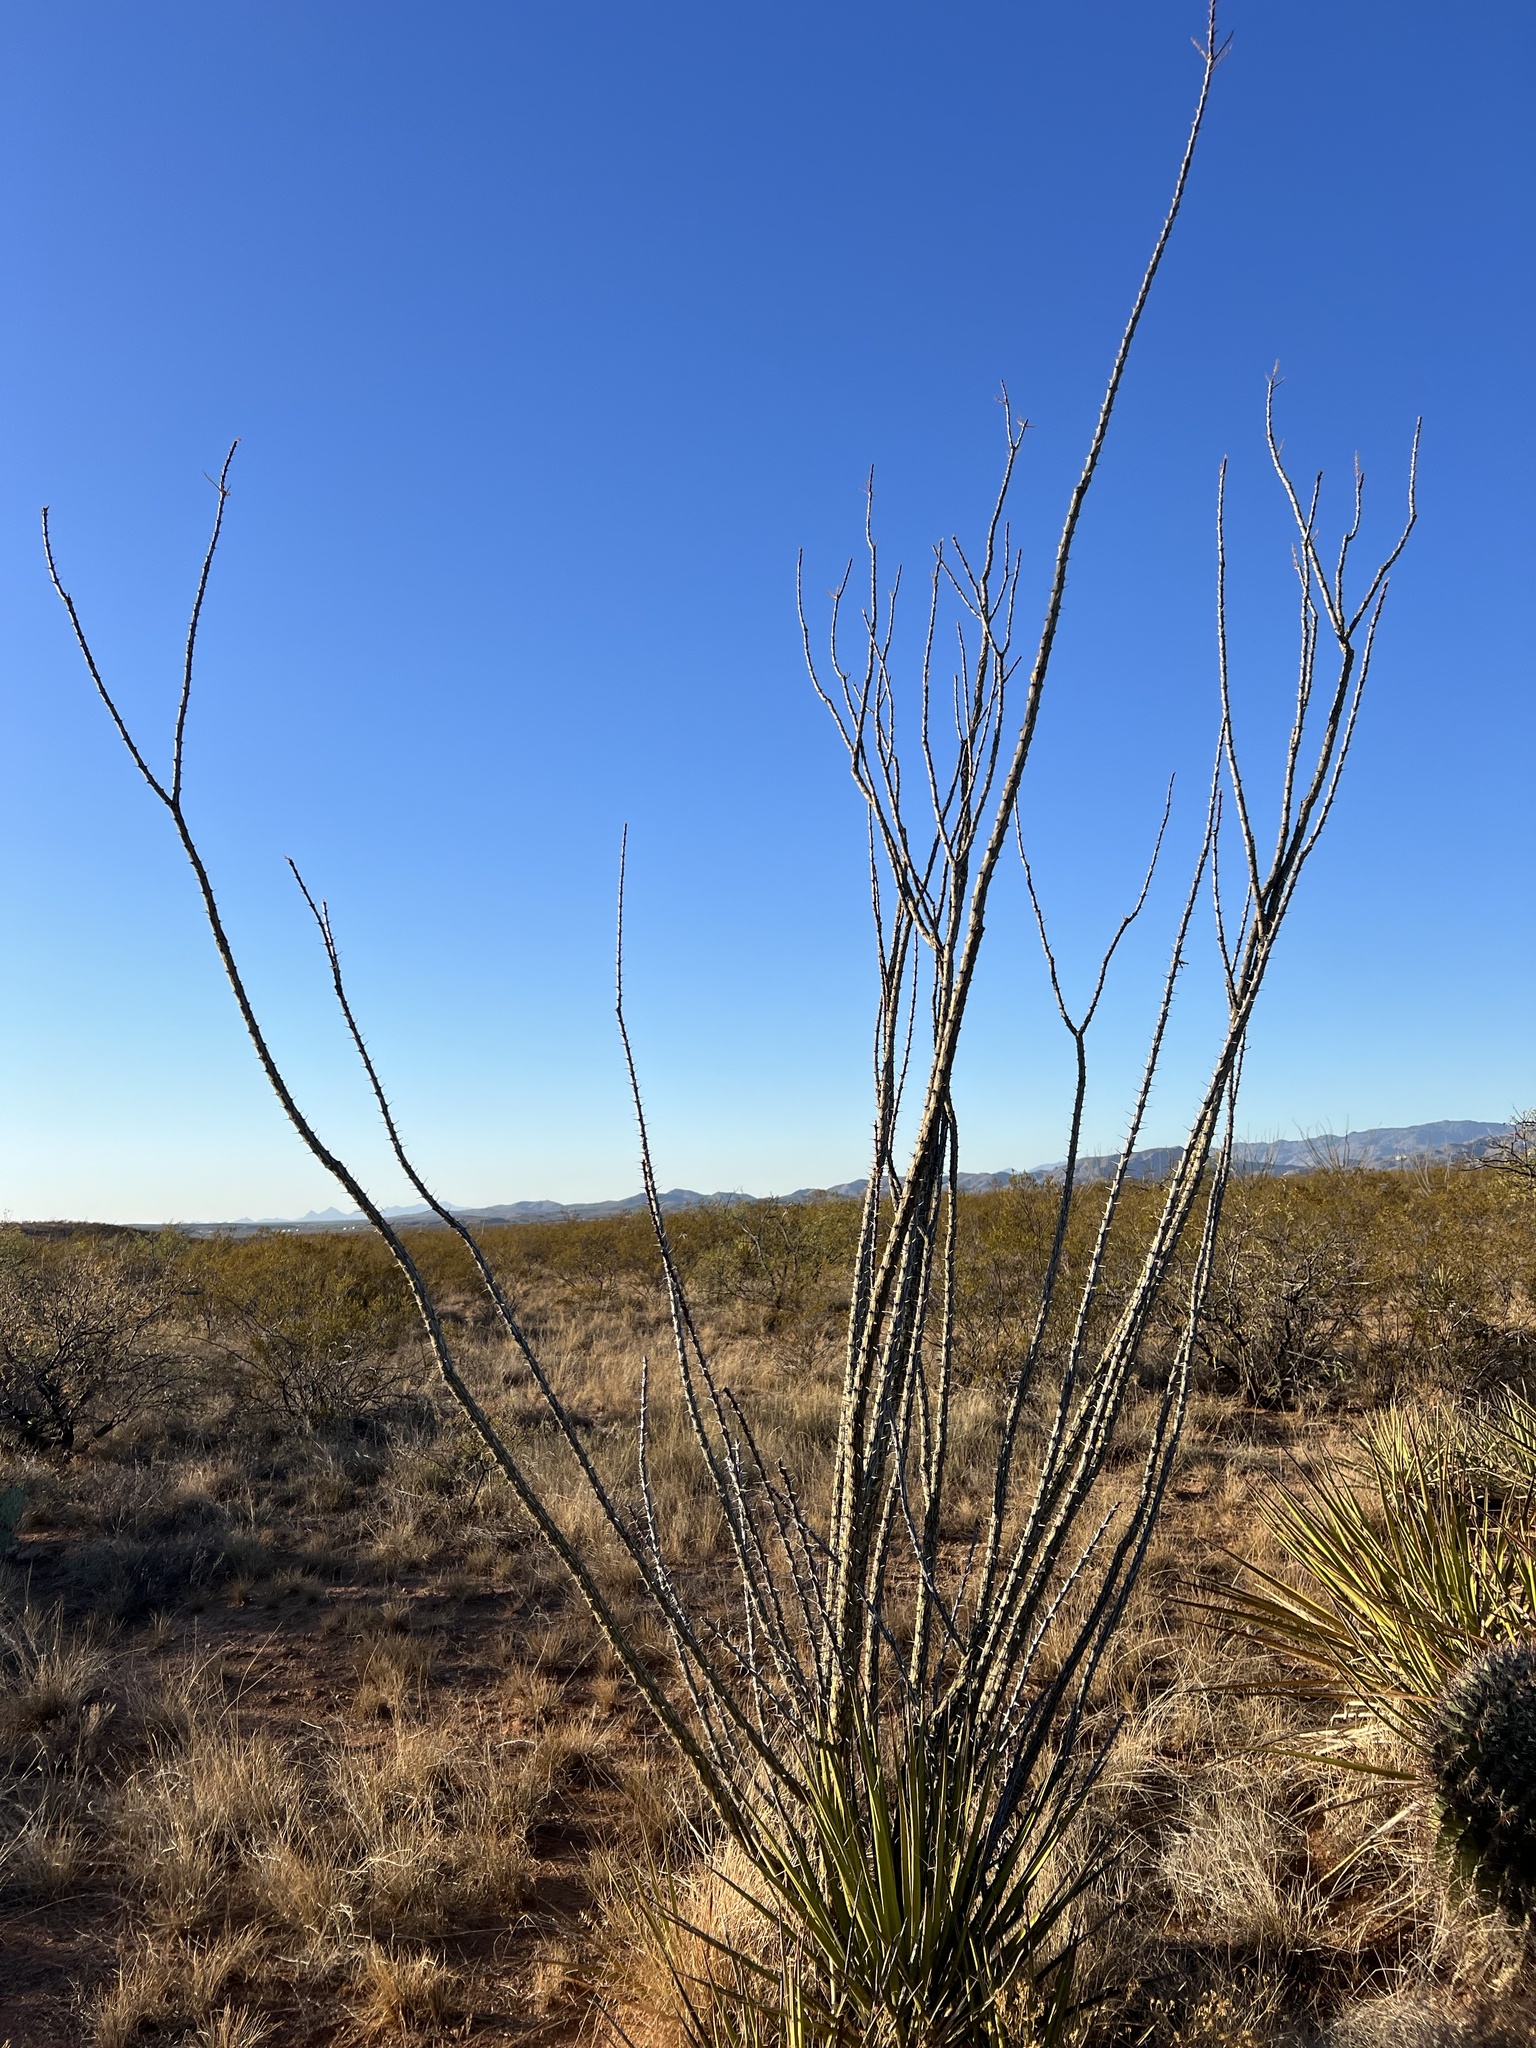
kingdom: Plantae
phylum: Tracheophyta
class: Magnoliopsida
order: Ericales
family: Fouquieriaceae
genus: Fouquieria
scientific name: Fouquieria splendens
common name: Vine-cactus
